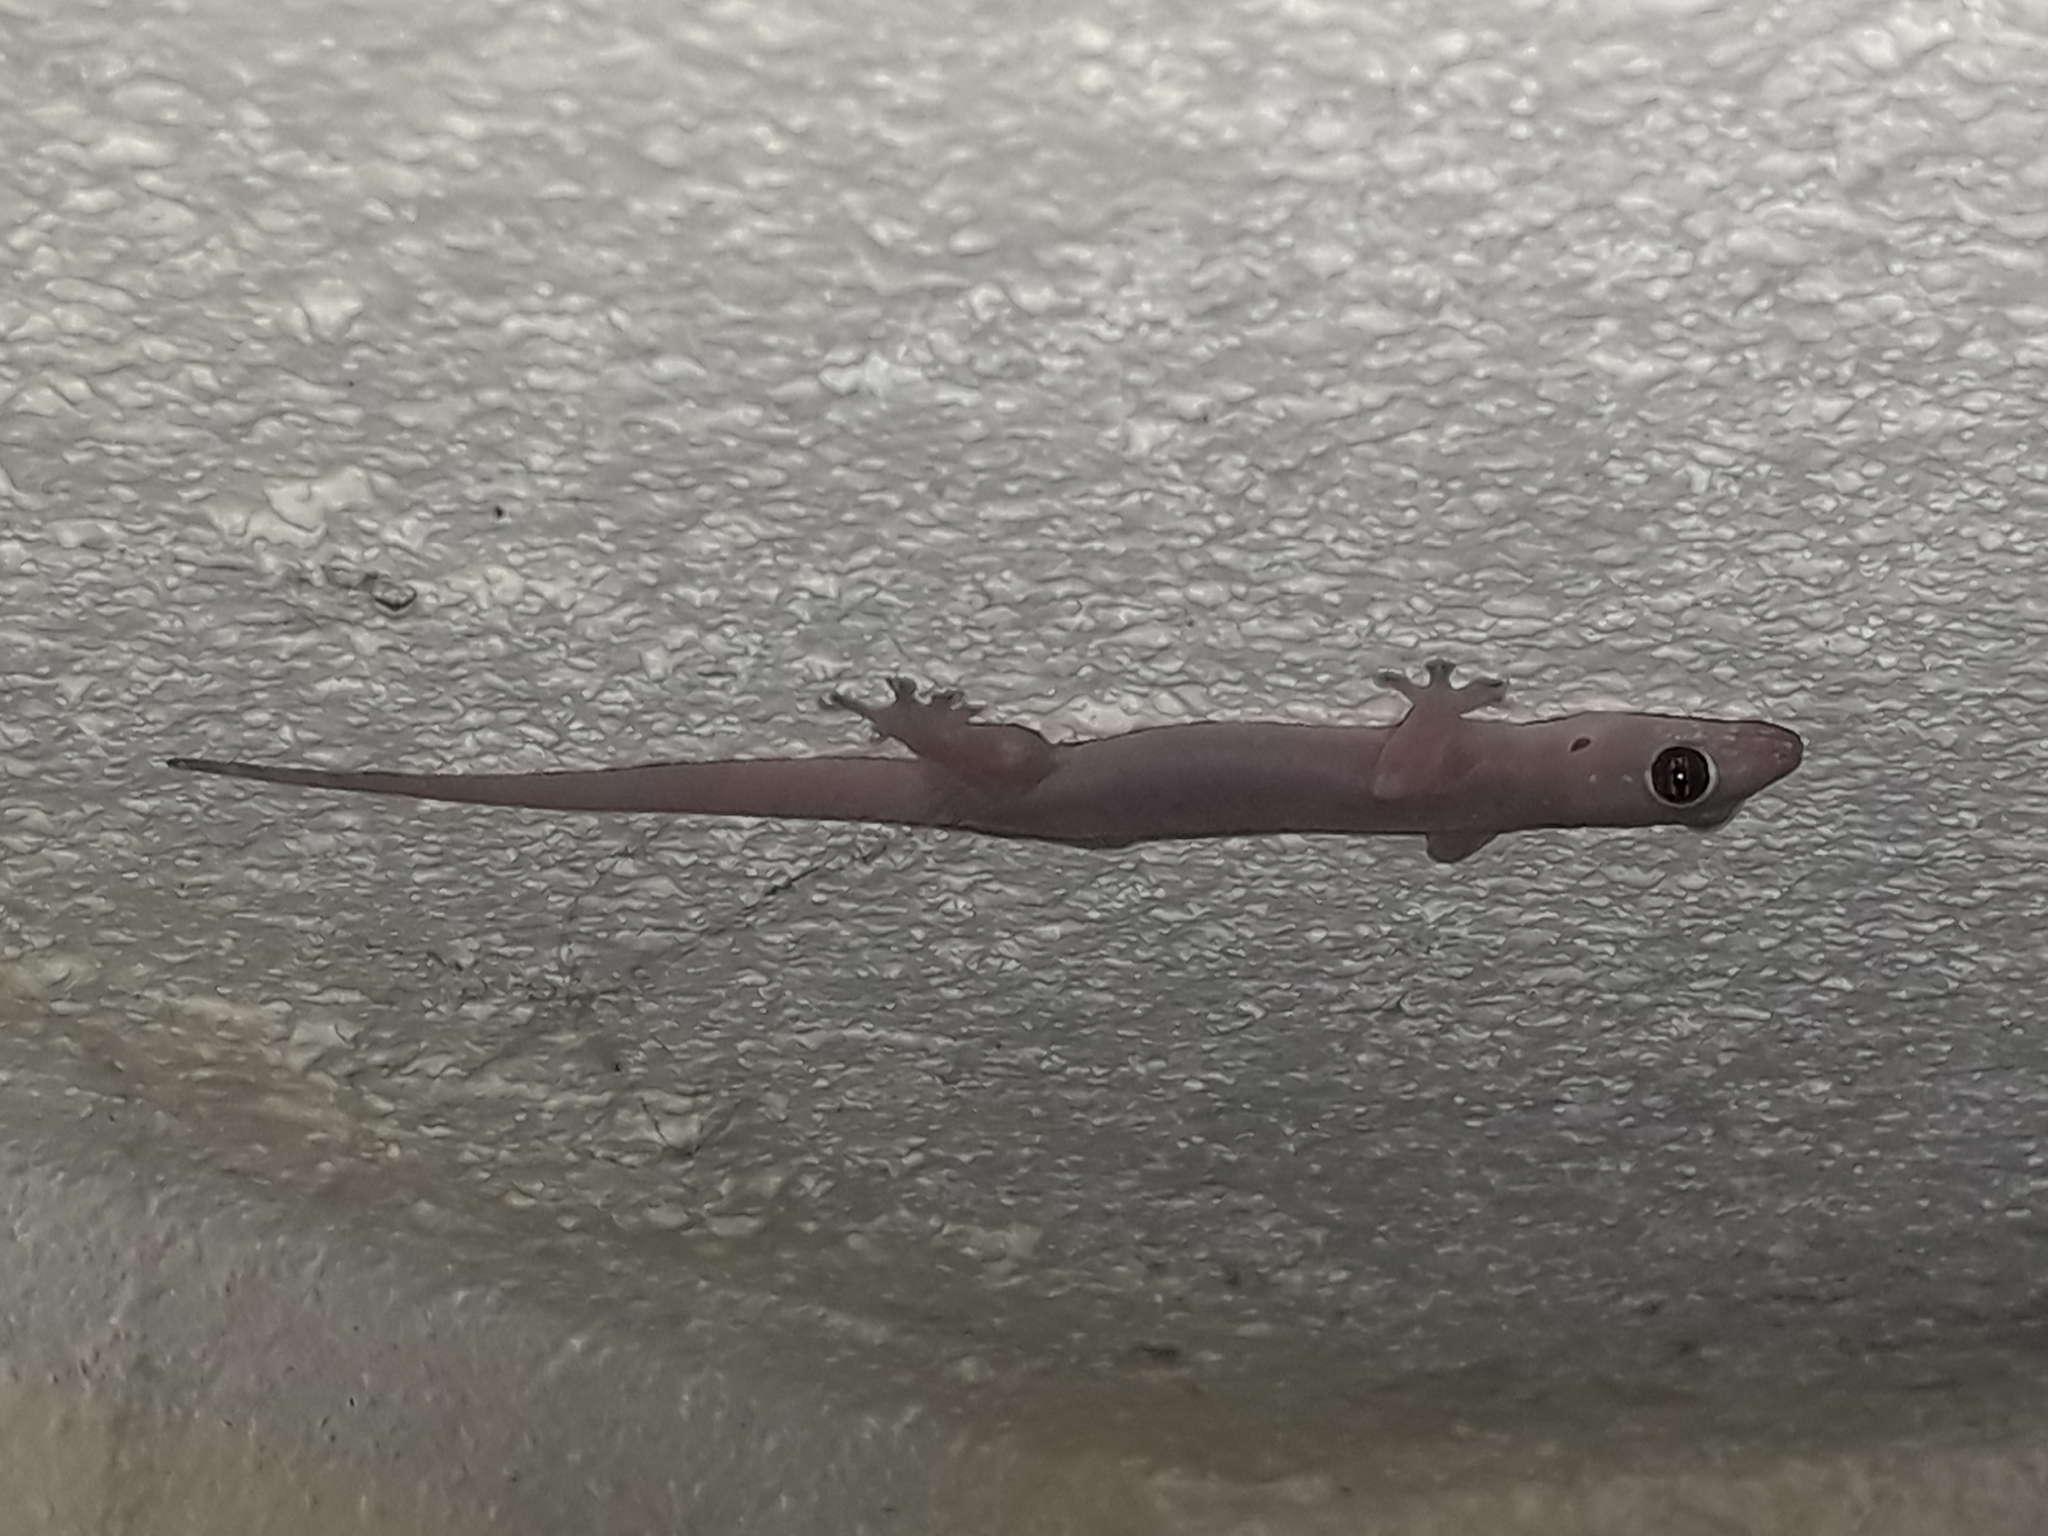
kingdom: Animalia
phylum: Chordata
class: Squamata
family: Gekkonidae
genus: Gehyra
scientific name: Gehyra mutilata
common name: Stump-toed gecko
